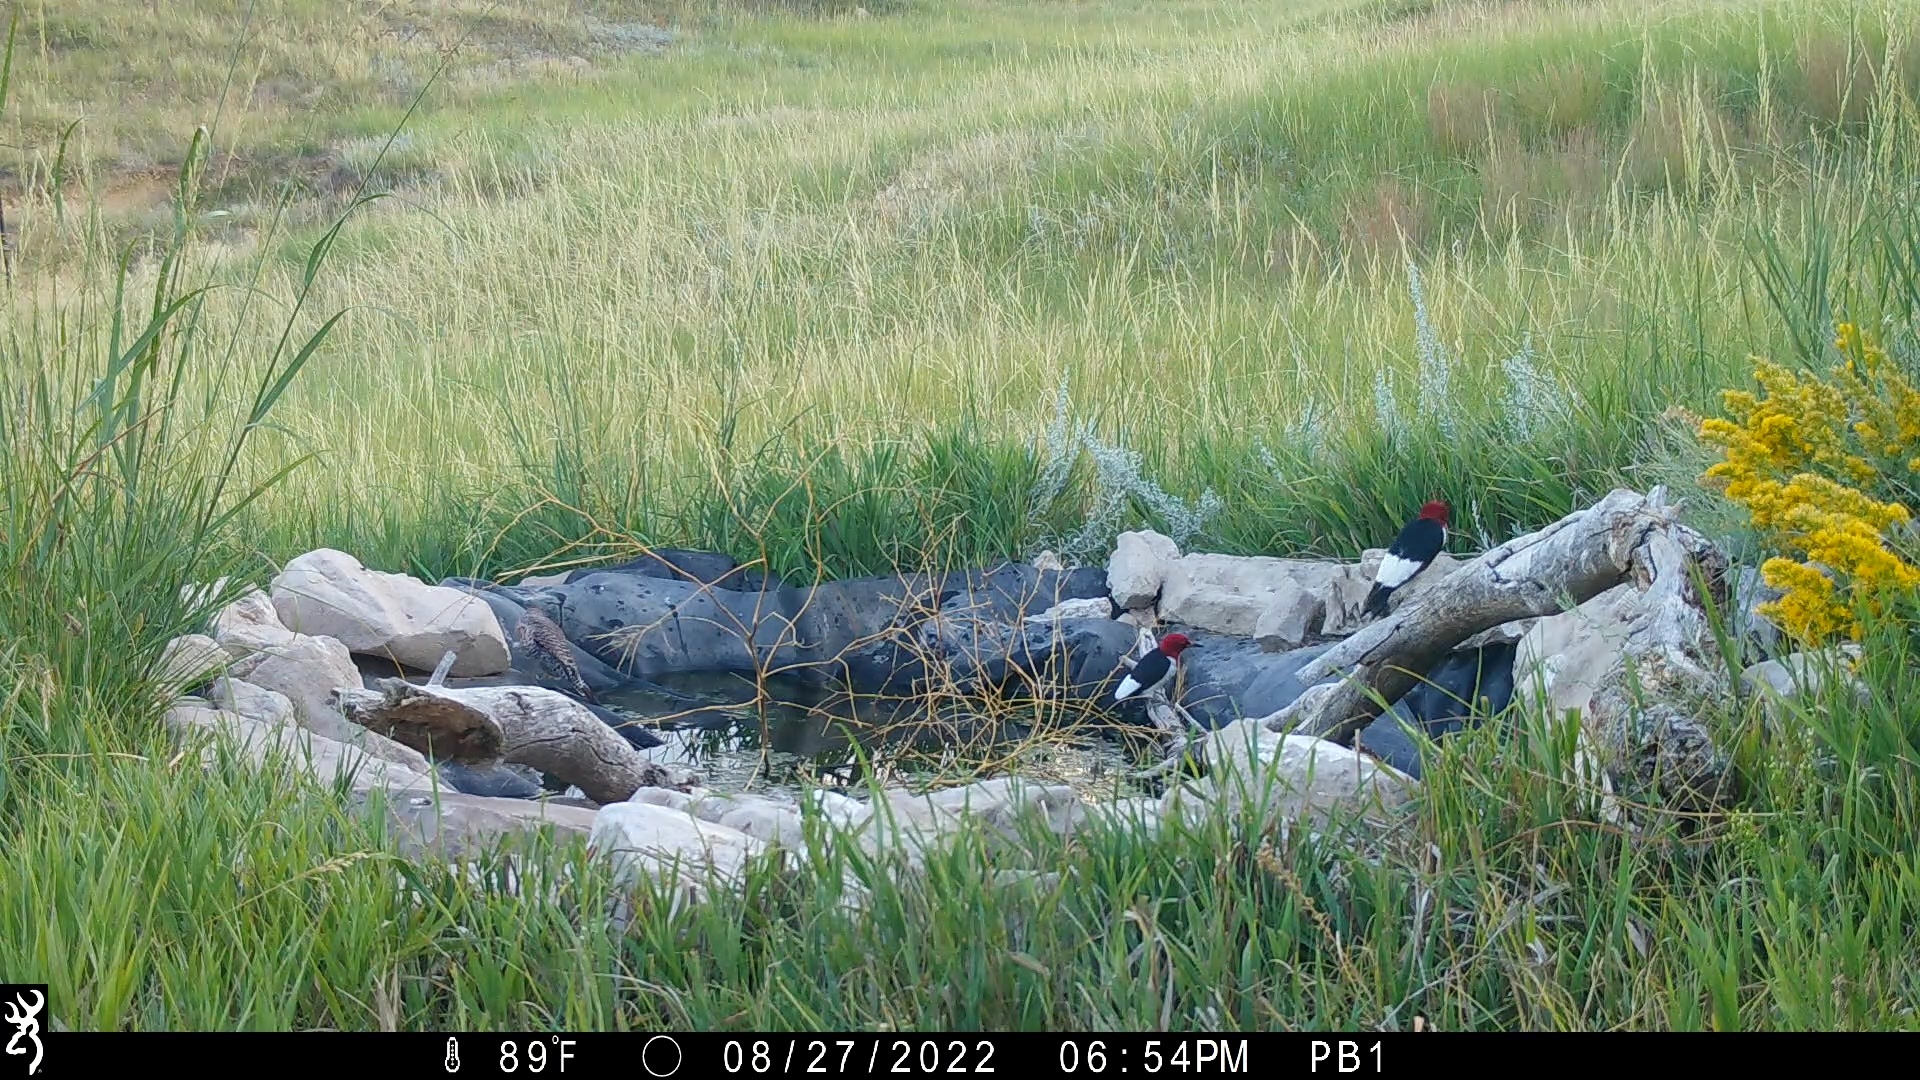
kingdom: Animalia
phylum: Chordata
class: Aves
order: Piciformes
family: Picidae
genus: Melanerpes
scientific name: Melanerpes erythrocephalus
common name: Red-headed woodpecker
